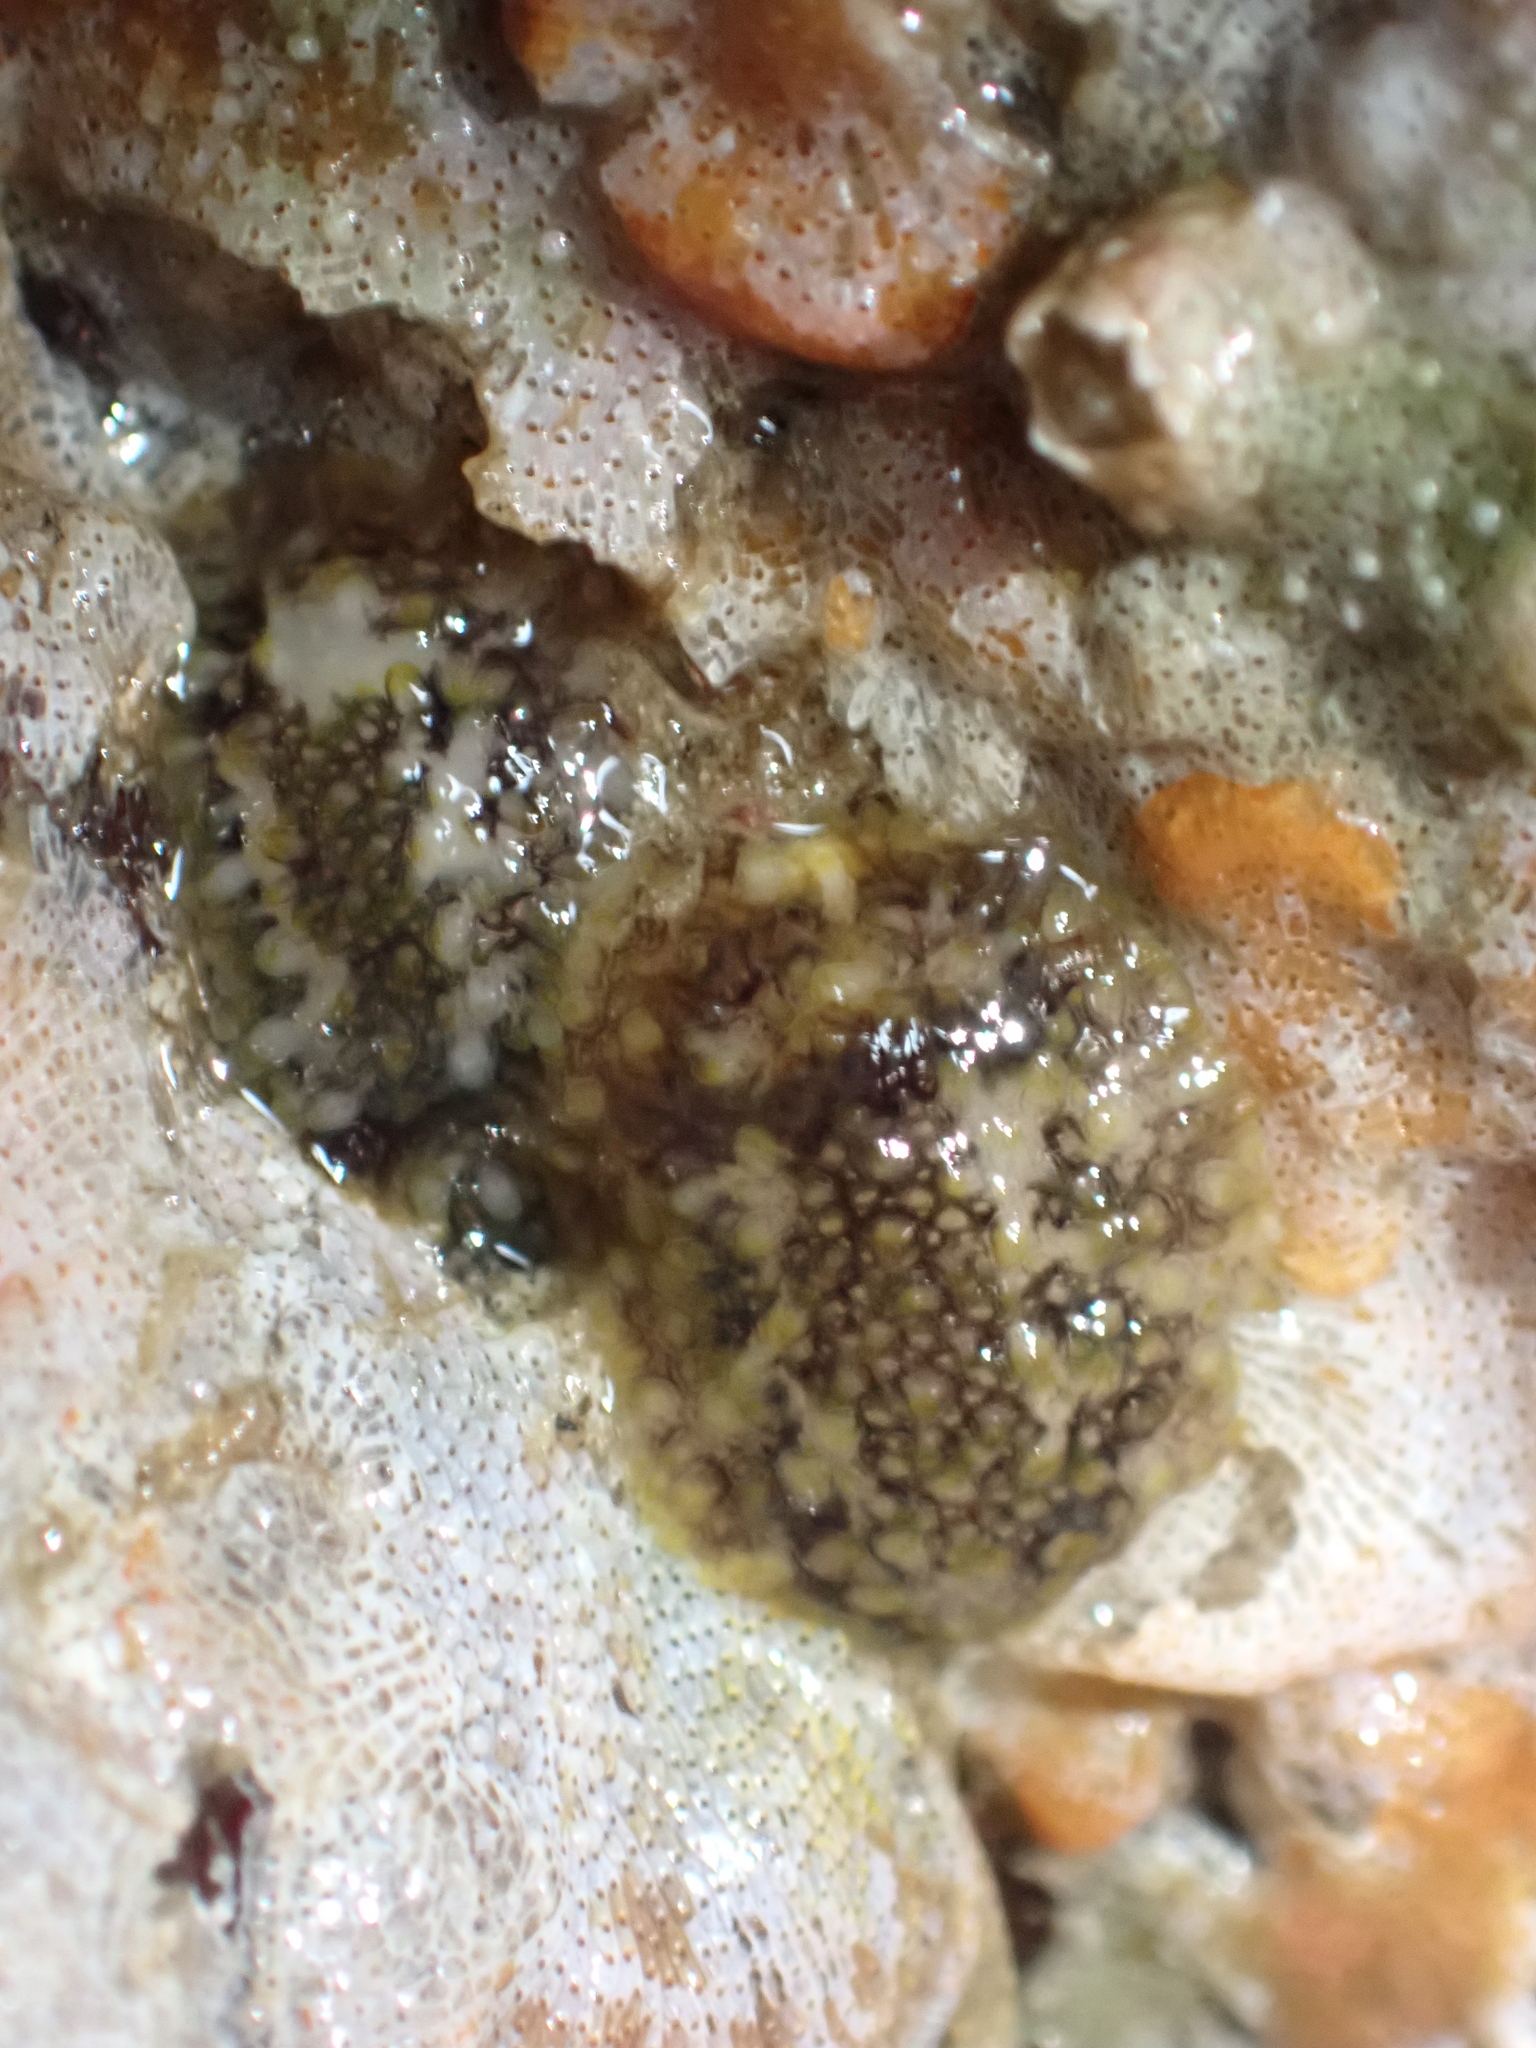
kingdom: Animalia
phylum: Mollusca
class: Gastropoda
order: Nudibranchia
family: Onchidorididae
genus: Onchidoris
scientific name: Onchidoris bilamellata
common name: Barnacle-eating onchidoris
